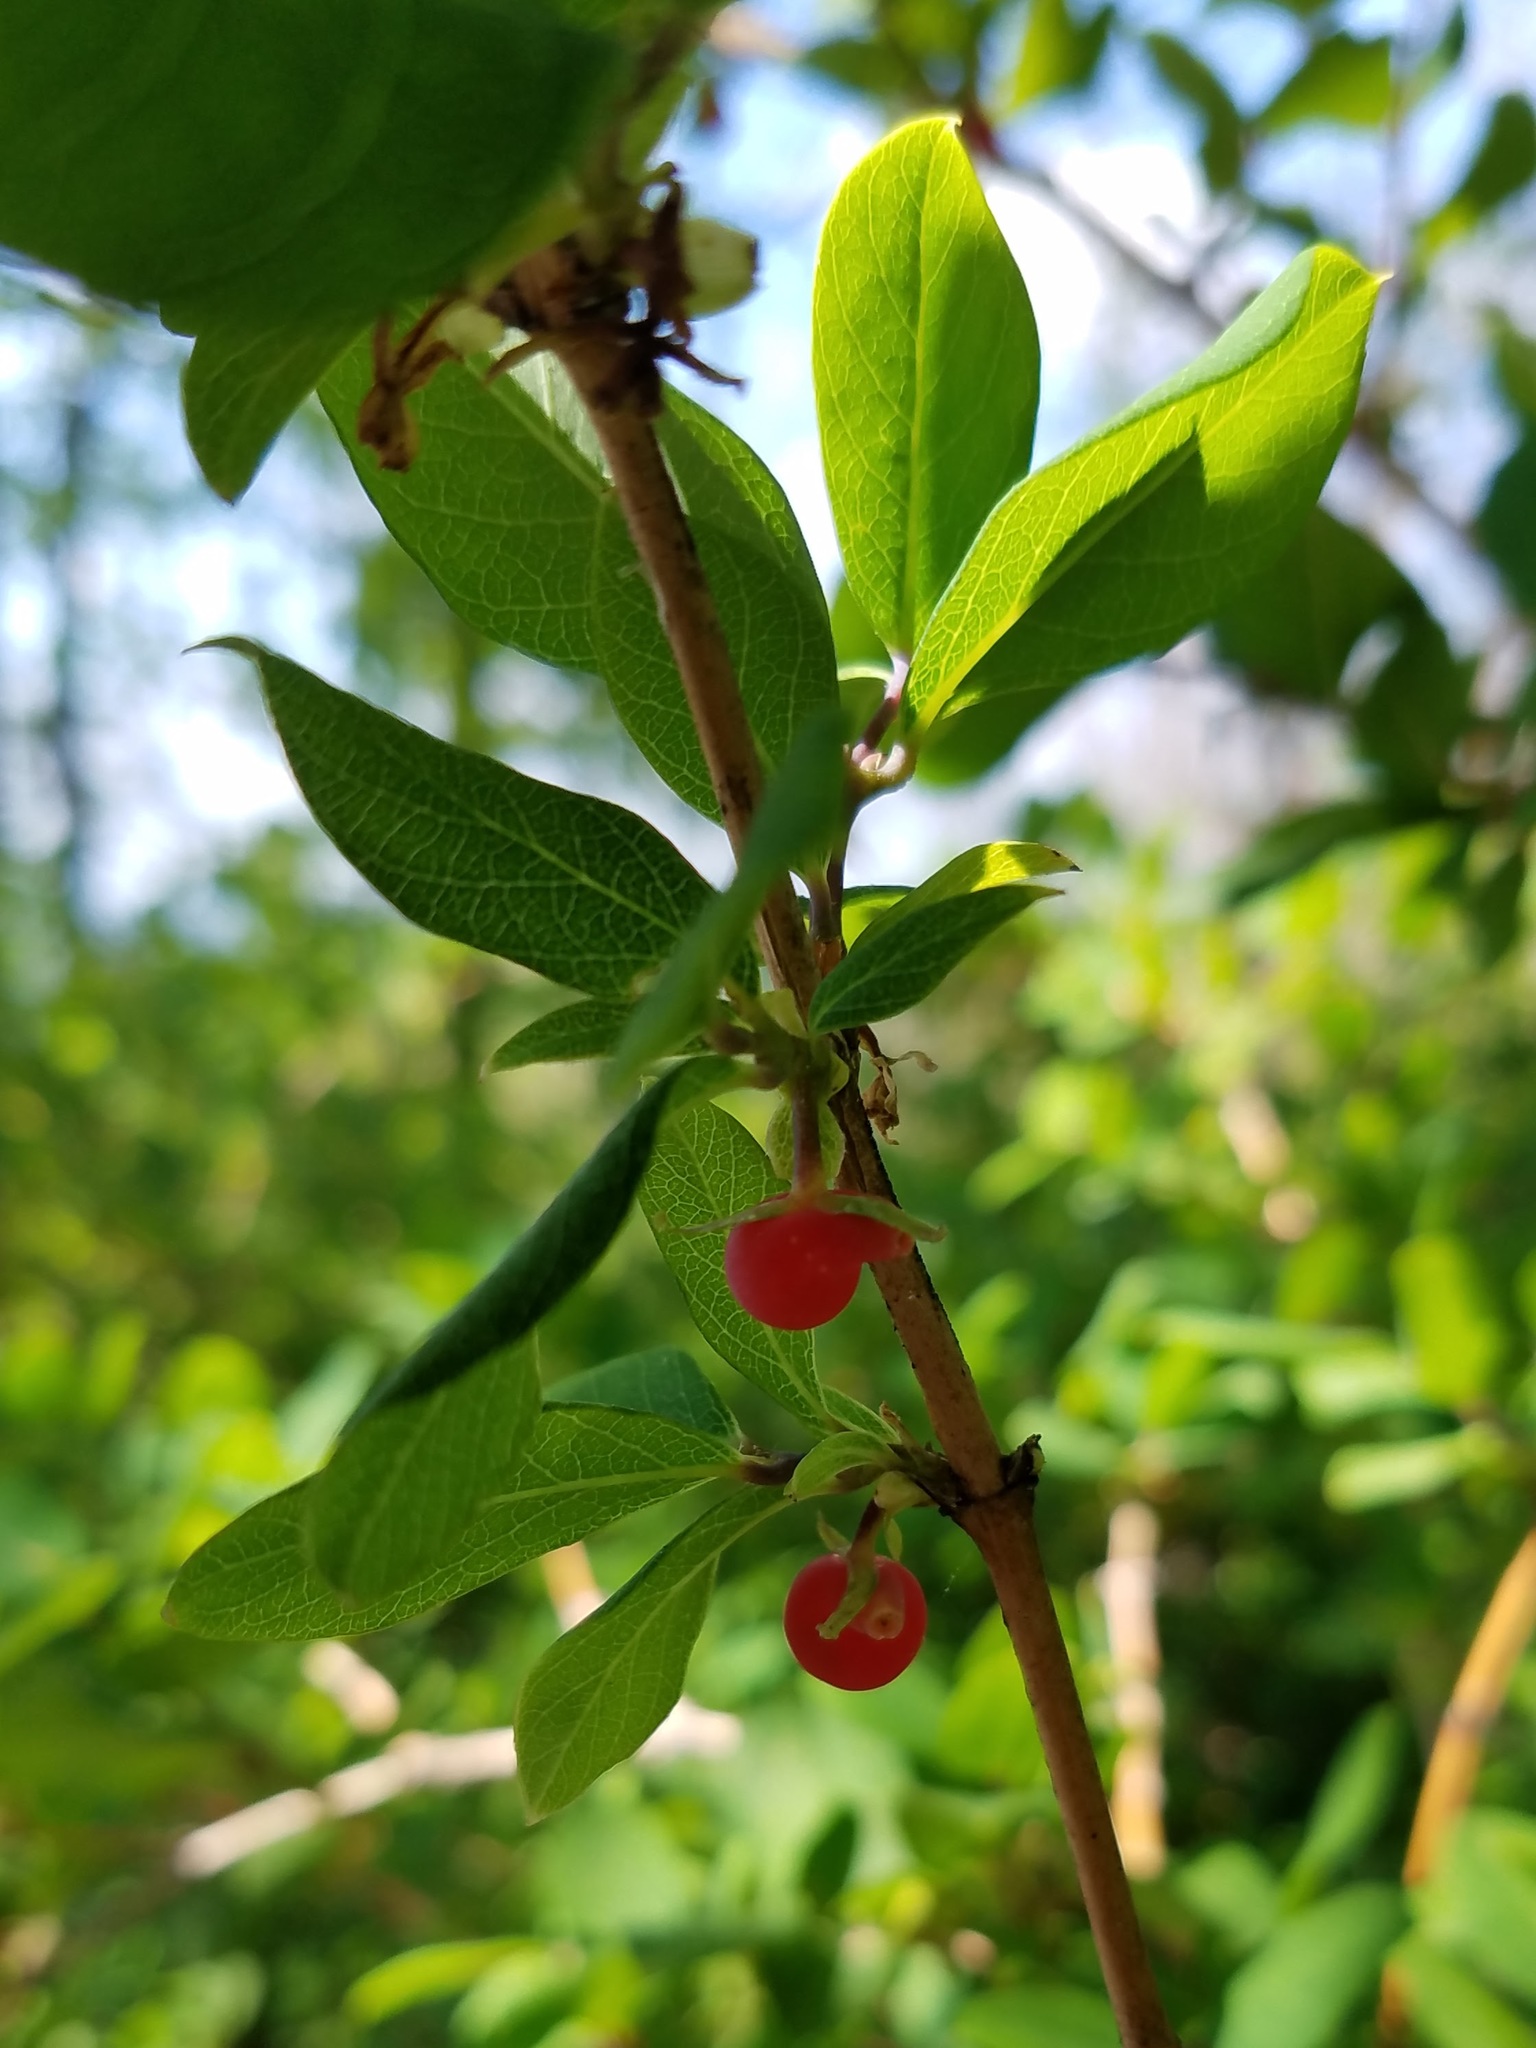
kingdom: Plantae
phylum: Tracheophyta
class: Magnoliopsida
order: Dipsacales
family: Caprifoliaceae
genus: Lonicera
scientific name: Lonicera fragrantissima
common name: Fragrant honeysuckle
